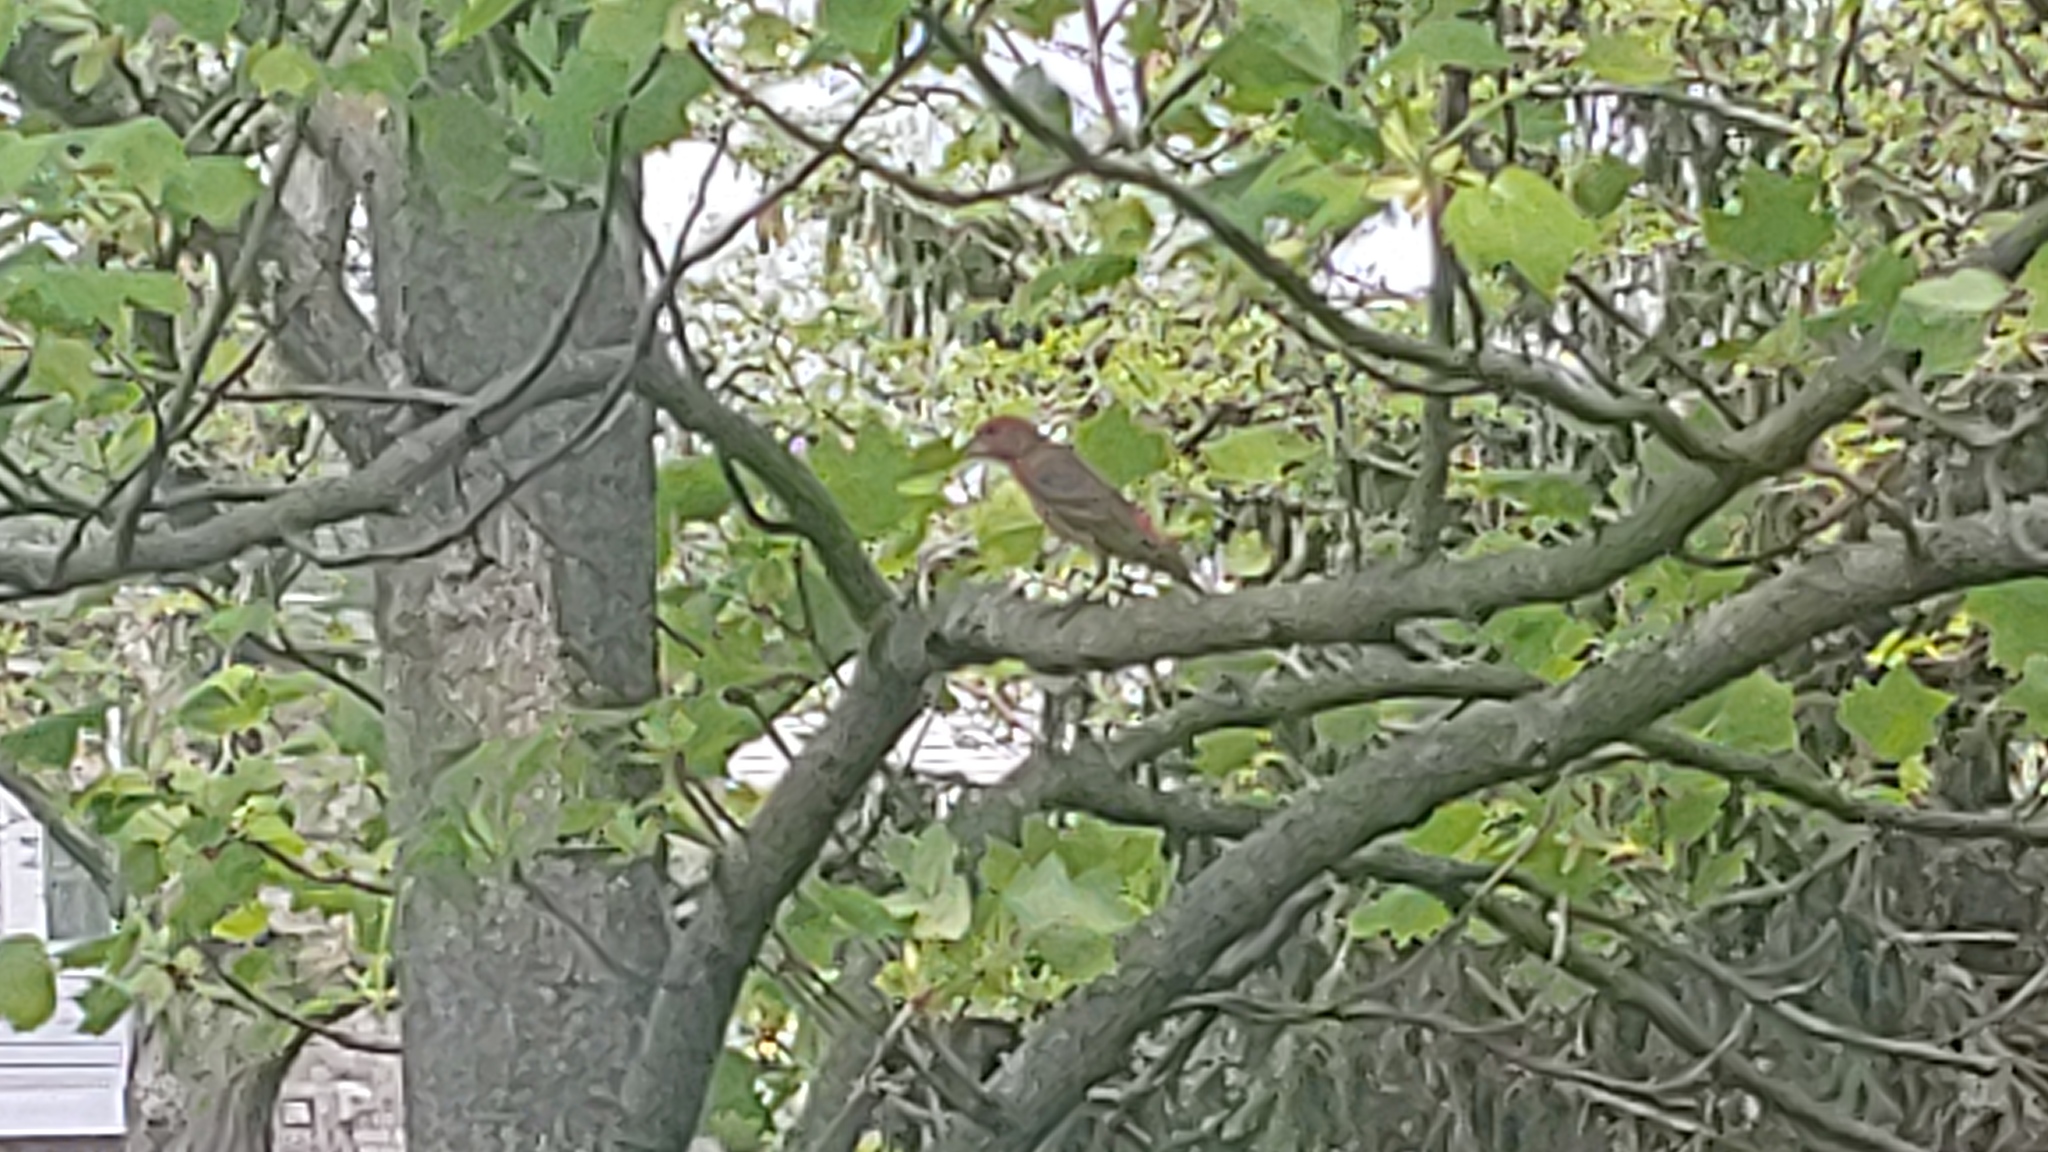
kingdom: Animalia
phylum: Chordata
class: Aves
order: Passeriformes
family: Fringillidae
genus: Haemorhous
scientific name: Haemorhous mexicanus
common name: House finch
